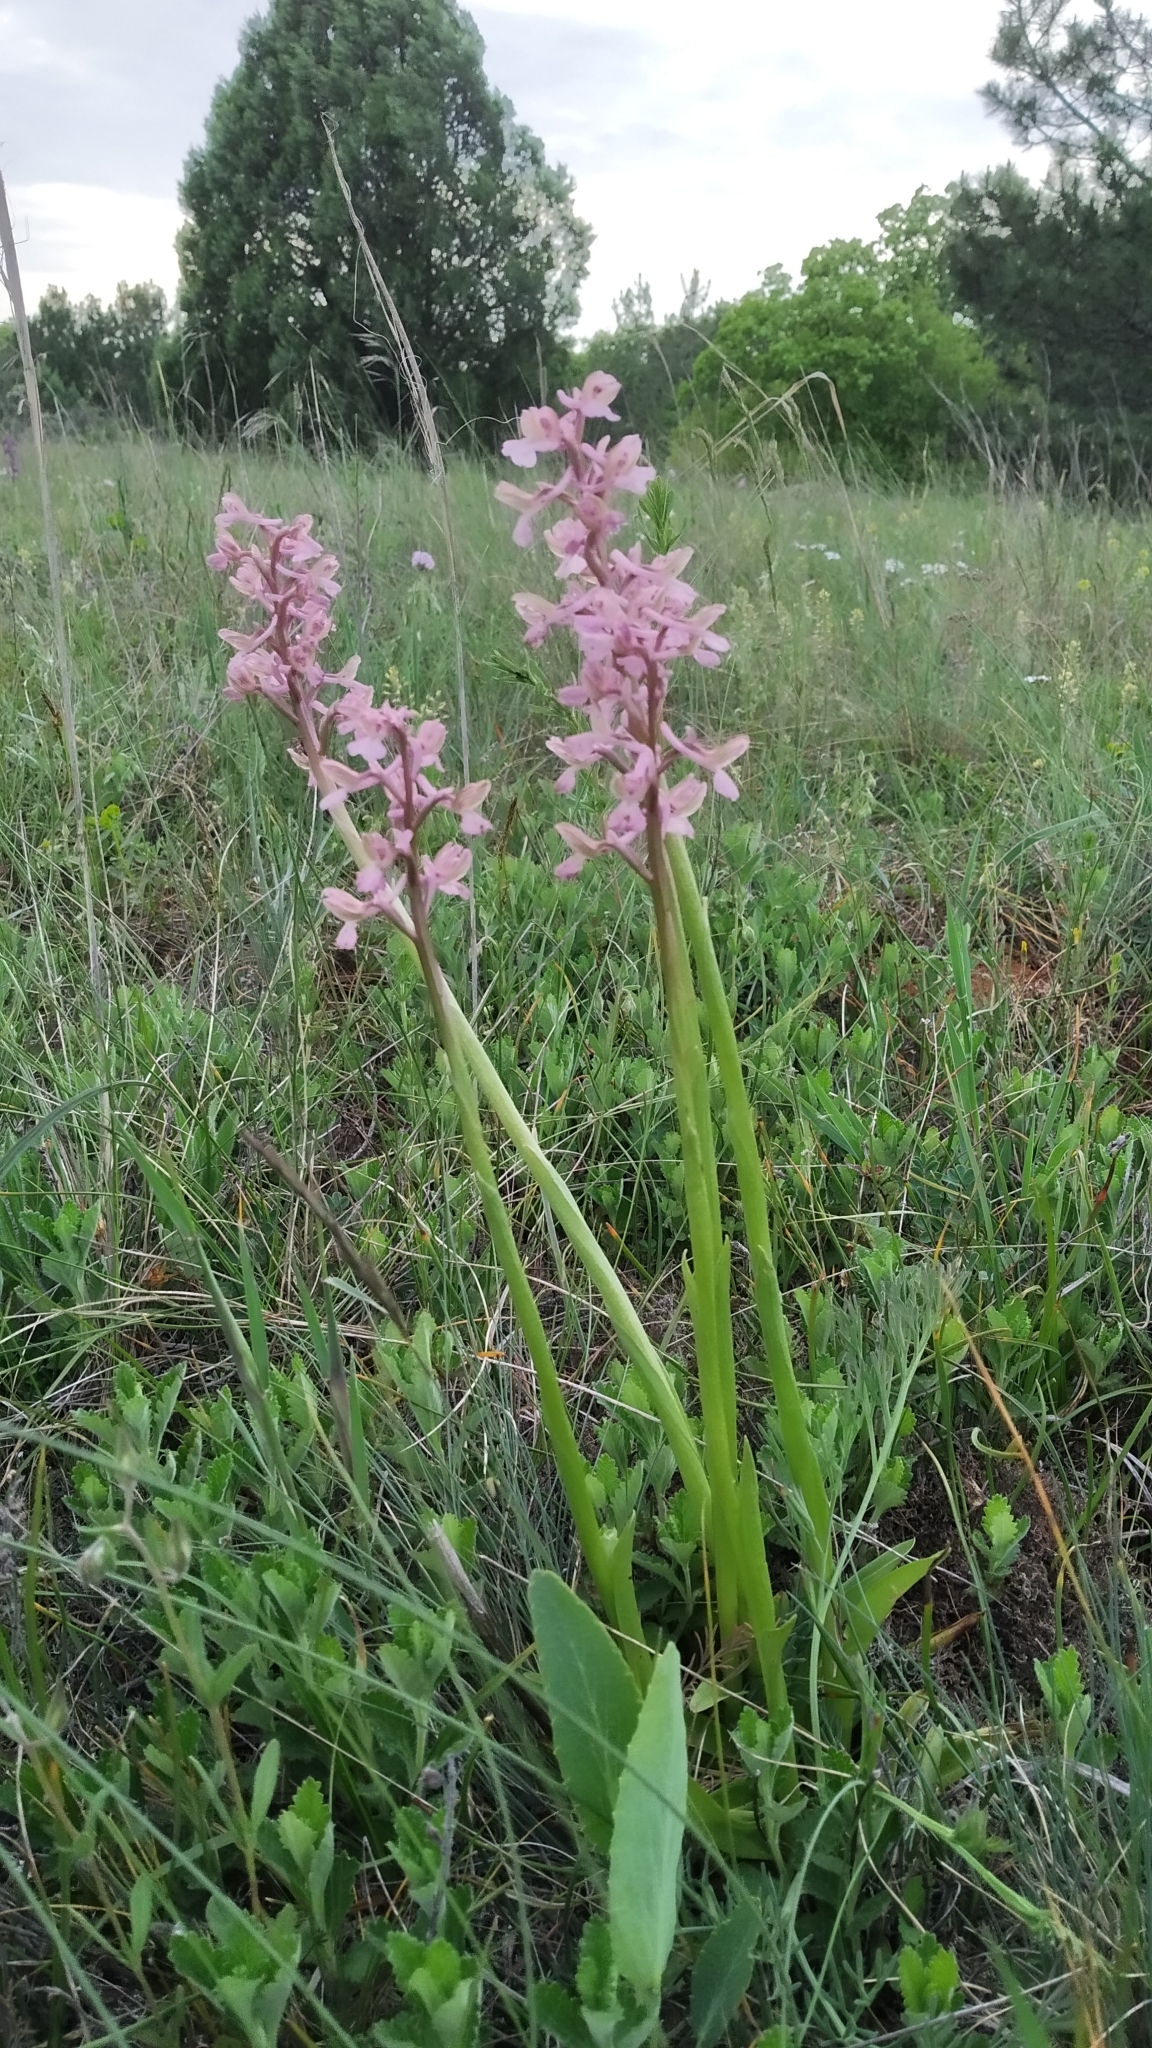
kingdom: Plantae
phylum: Tracheophyta
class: Liliopsida
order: Asparagales
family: Orchidaceae
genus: Anacamptis
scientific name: Anacamptis morio
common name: Green-winged orchid
